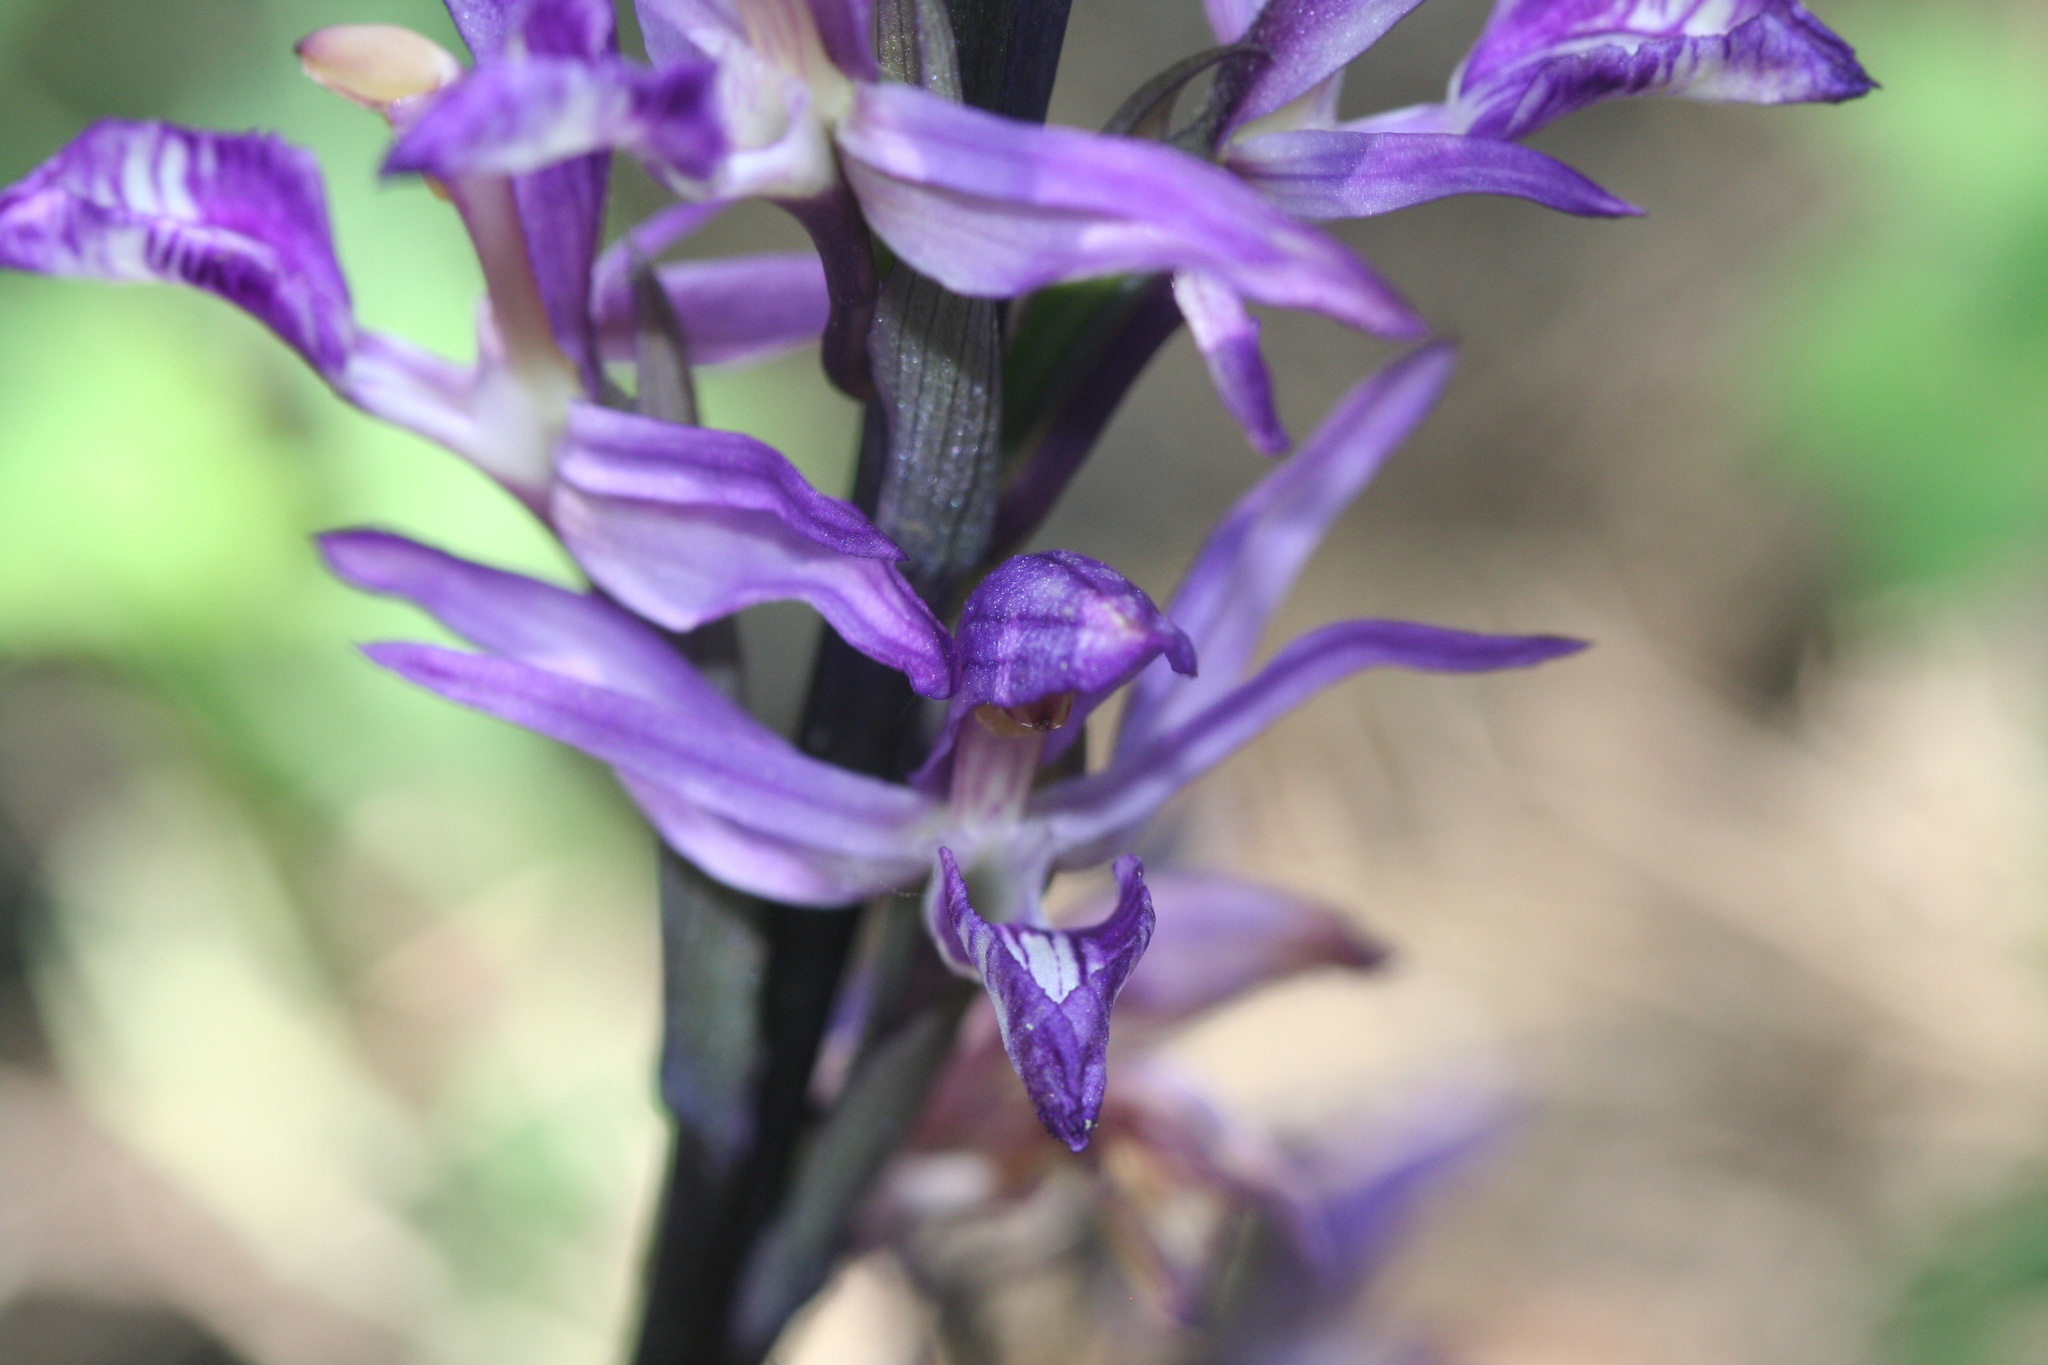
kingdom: Plantae
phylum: Tracheophyta
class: Liliopsida
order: Asparagales
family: Orchidaceae
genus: Limodorum
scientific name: Limodorum abortivum
